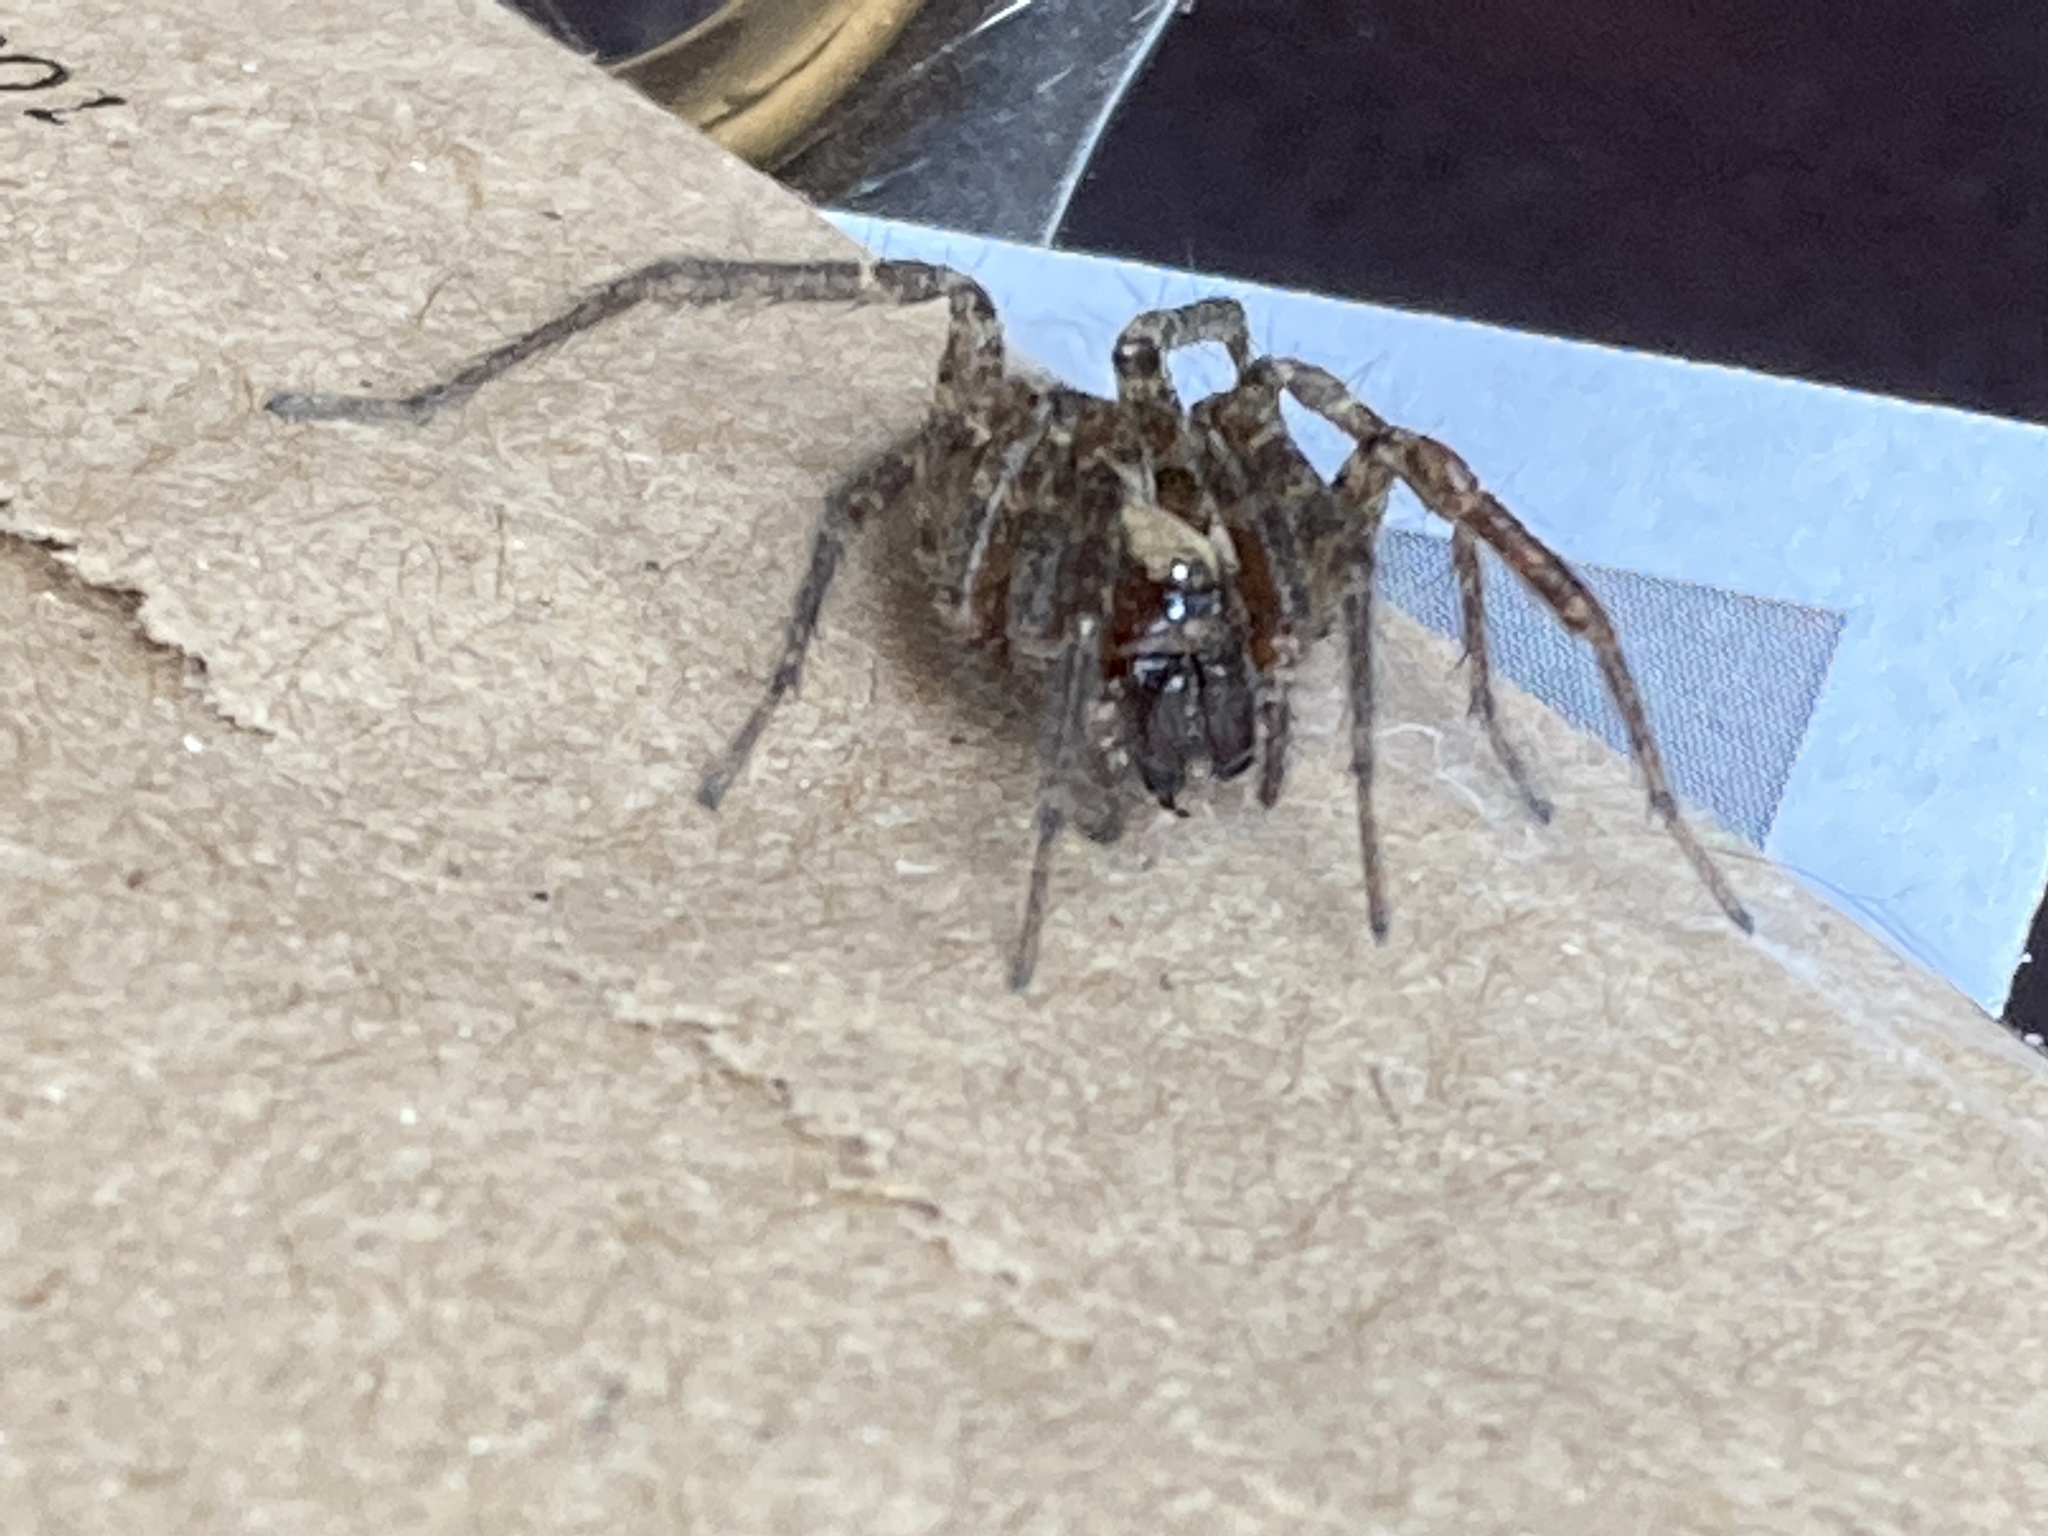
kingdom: Animalia
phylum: Arthropoda
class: Arachnida
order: Araneae
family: Agelenidae
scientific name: Agelenidae
